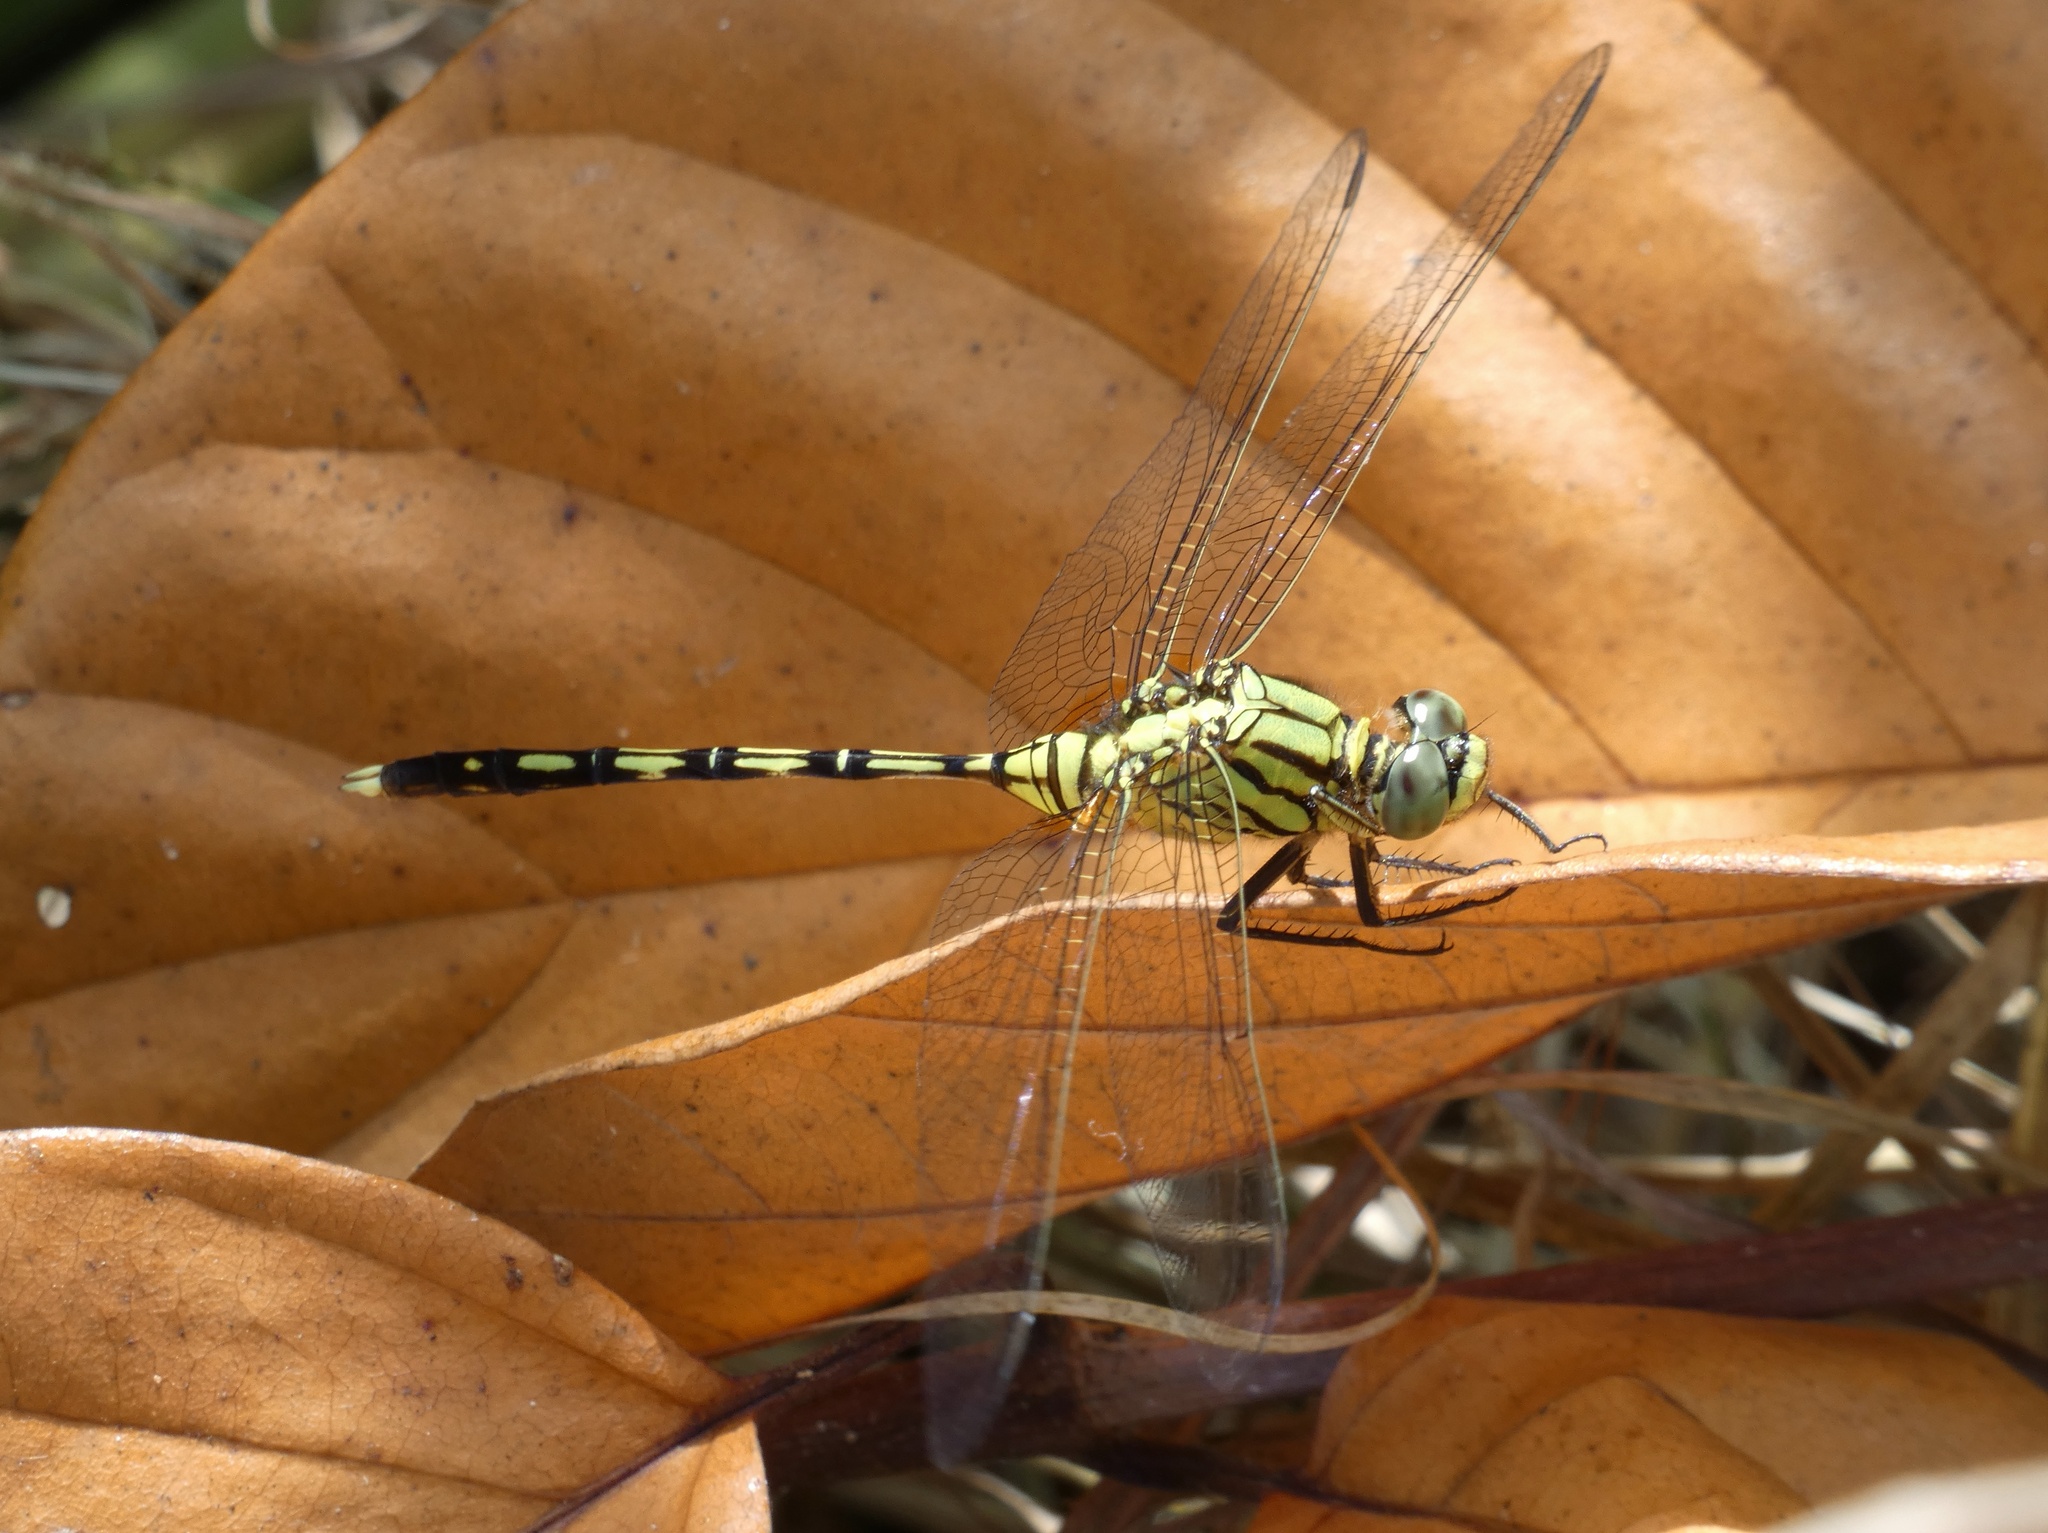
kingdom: Animalia
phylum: Arthropoda
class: Insecta
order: Odonata
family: Libellulidae
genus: Orthetrum
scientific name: Orthetrum serapia
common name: Green skimmer
